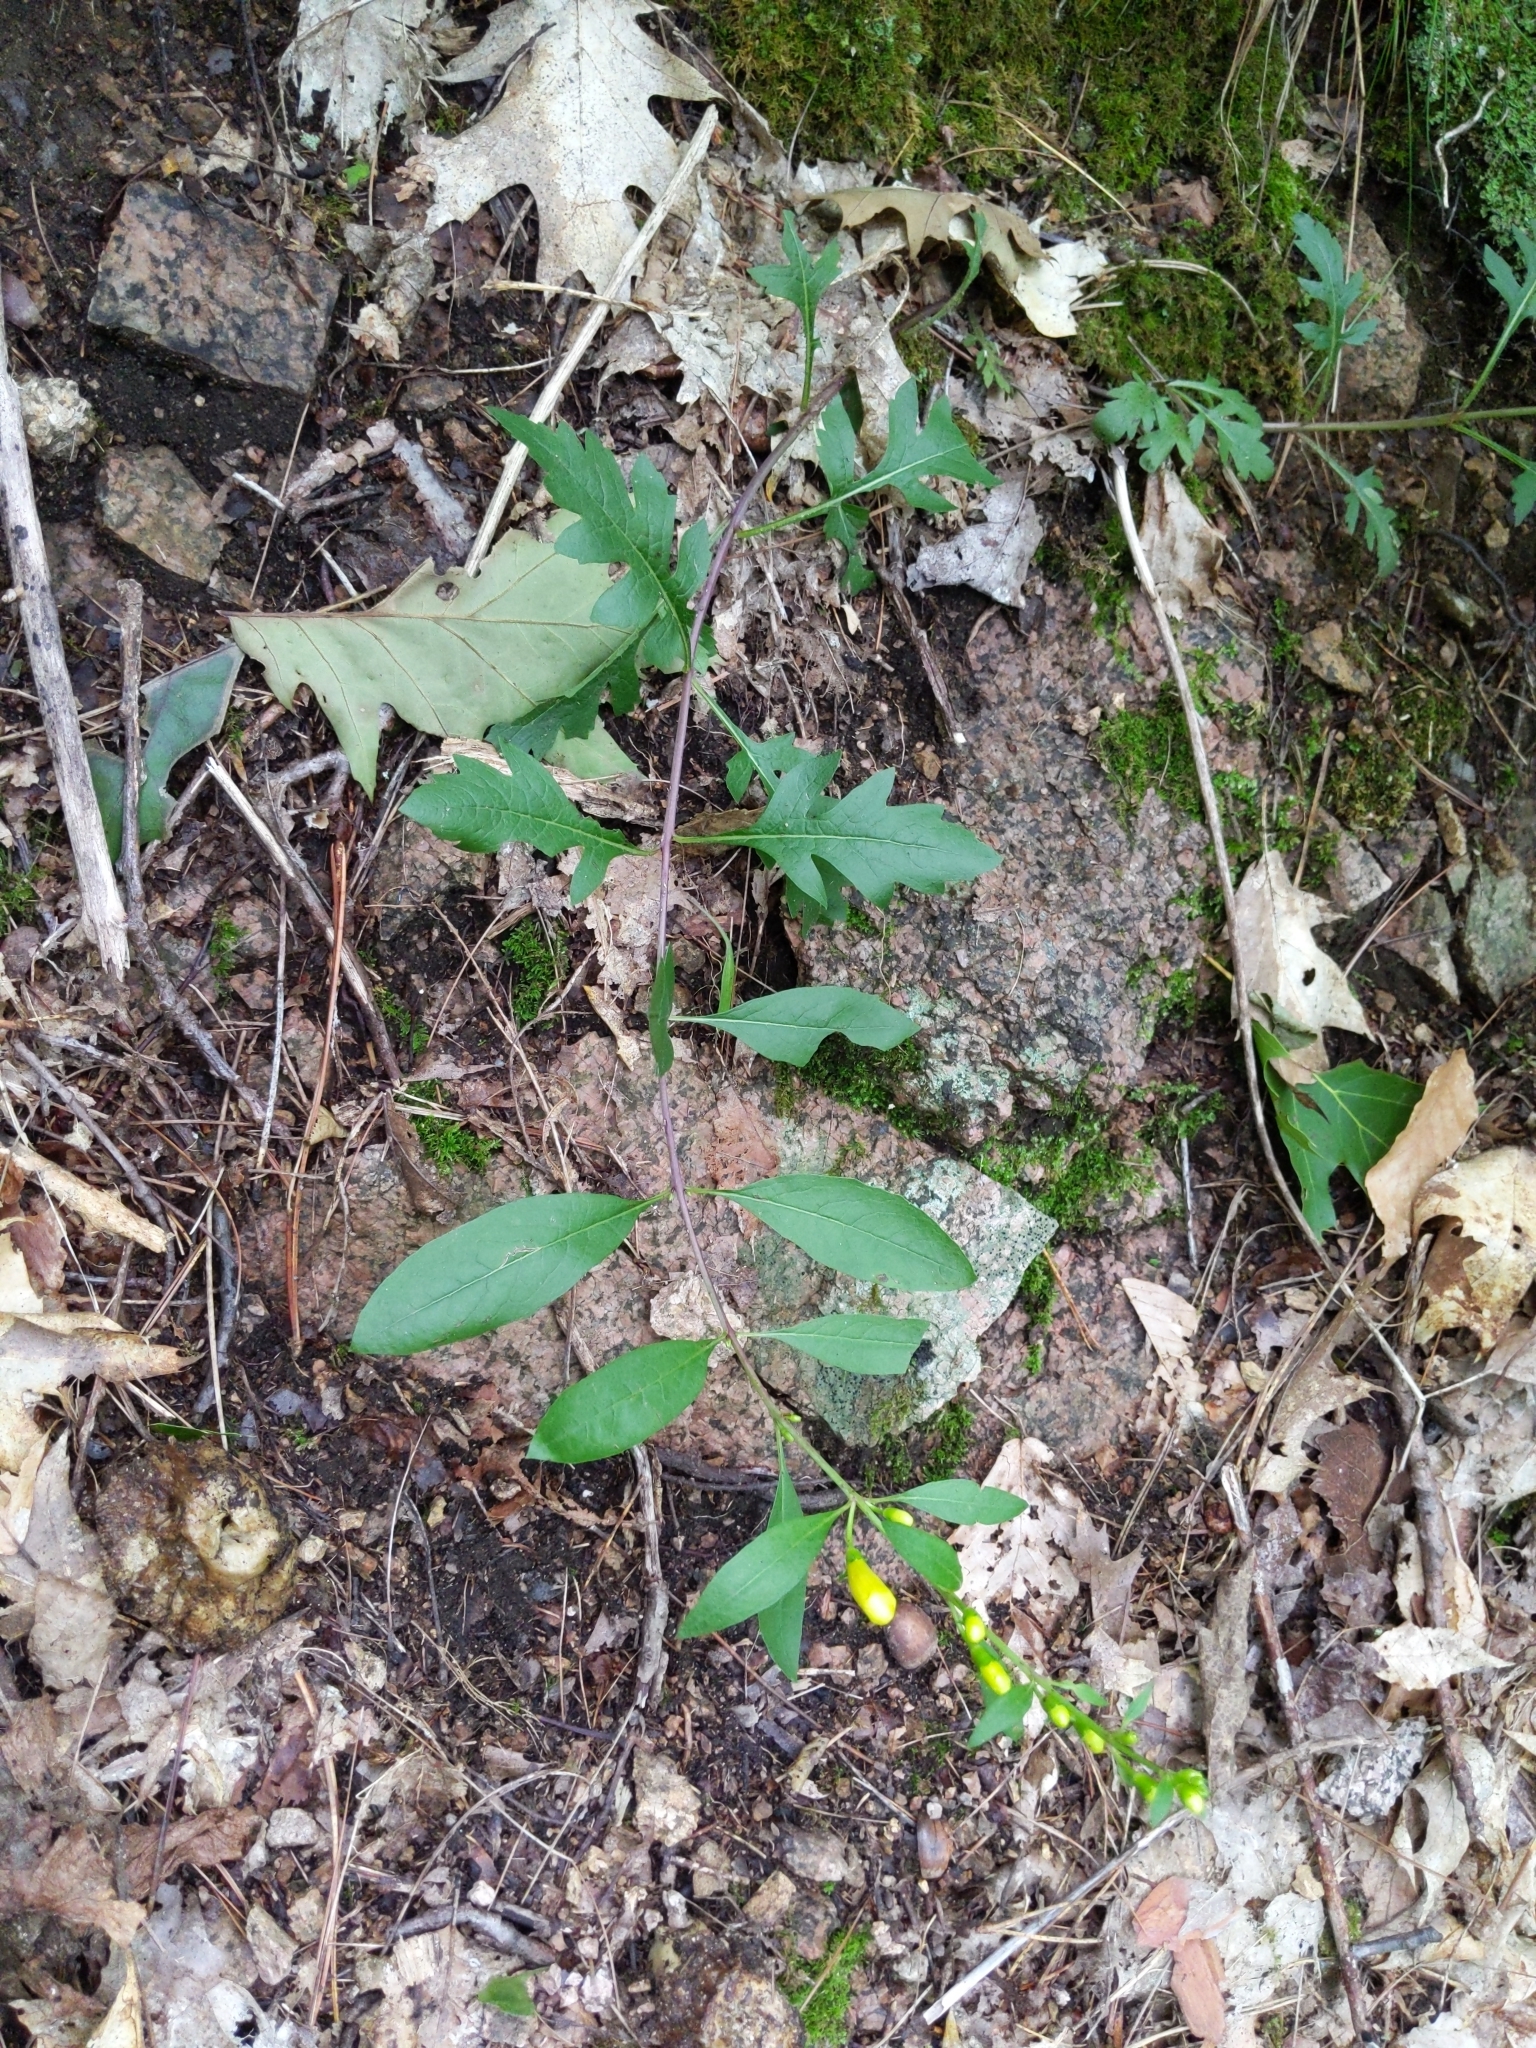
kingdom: Plantae
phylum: Tracheophyta
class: Magnoliopsida
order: Lamiales
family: Orobanchaceae
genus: Aureolaria
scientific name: Aureolaria flava
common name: Smooth false foxglove
